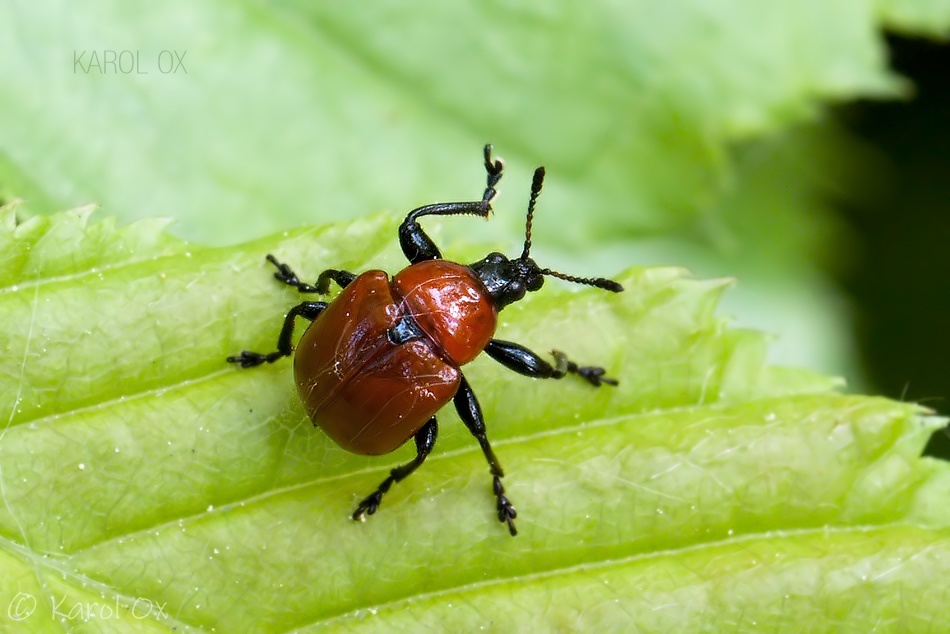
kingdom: Animalia
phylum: Arthropoda
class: Insecta
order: Coleoptera
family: Attelabidae
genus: Attelabus
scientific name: Attelabus nitens
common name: Oak leaf-roller
